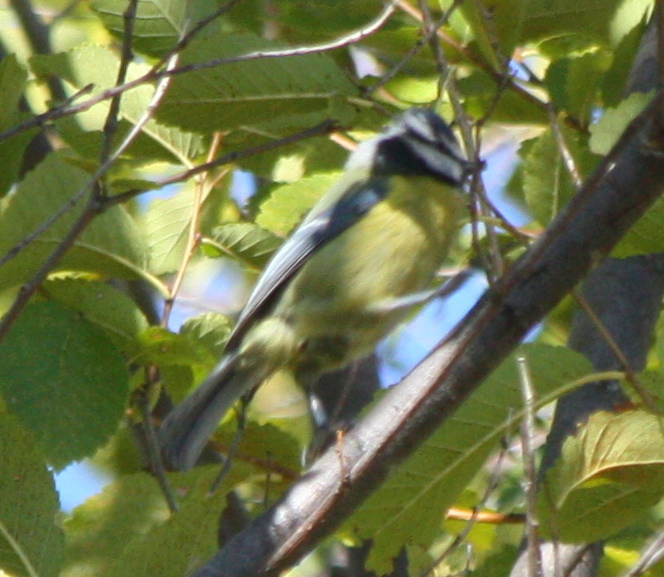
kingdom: Animalia
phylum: Chordata
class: Aves
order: Passeriformes
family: Paridae
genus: Cyanistes
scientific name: Cyanistes caeruleus
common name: Eurasian blue tit
